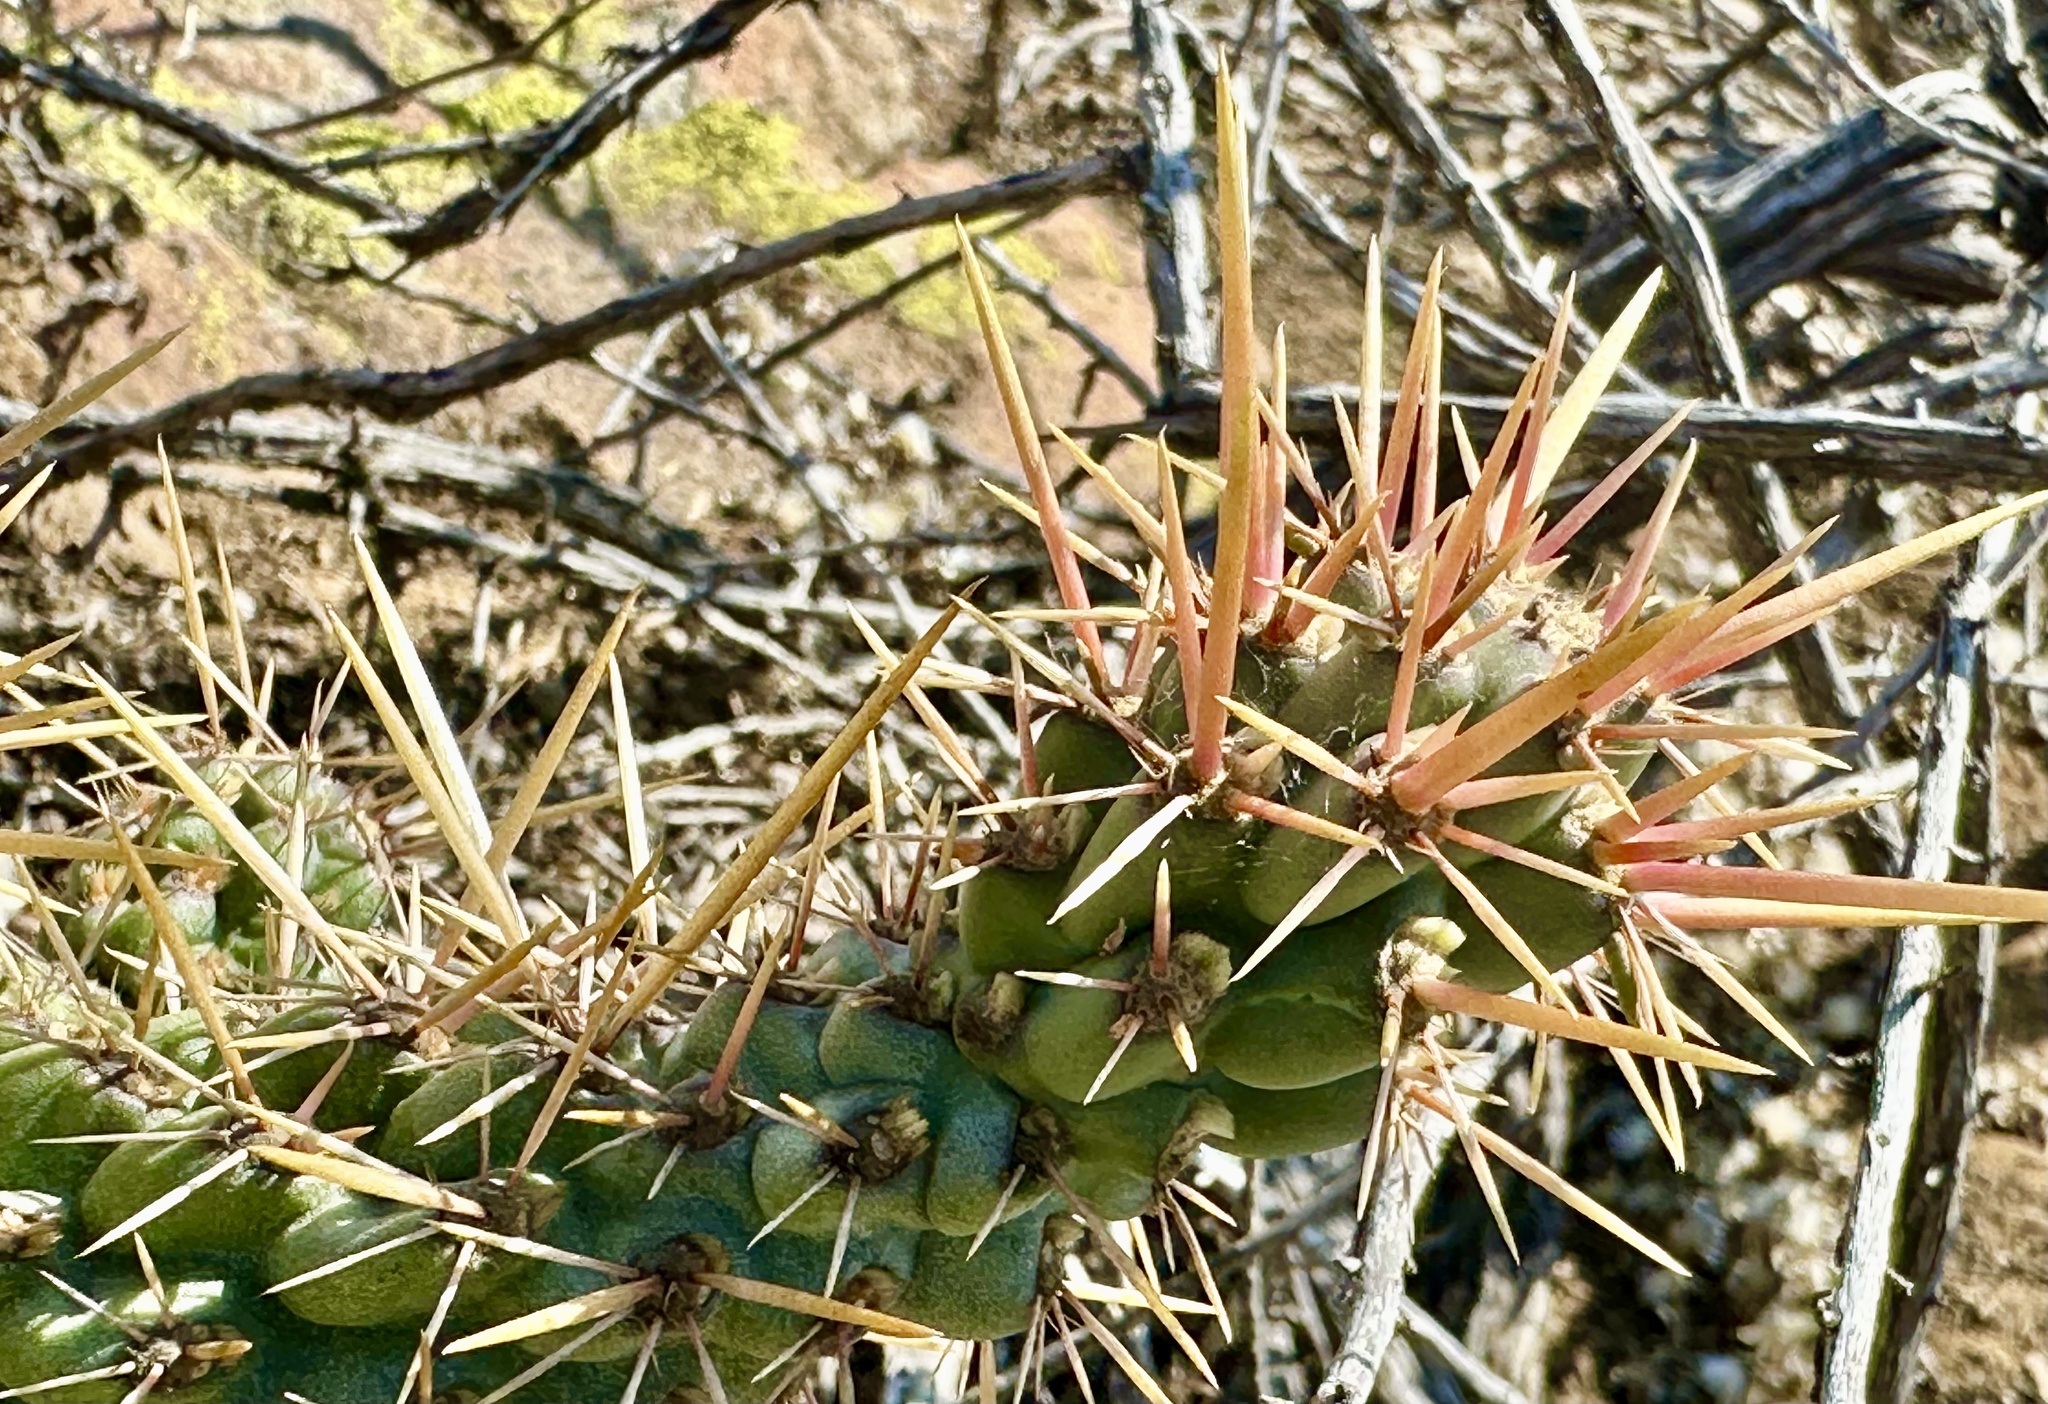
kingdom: Plantae
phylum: Tracheophyta
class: Magnoliopsida
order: Caryophyllales
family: Cactaceae
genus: Cylindropuntia
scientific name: Cylindropuntia prolifera
